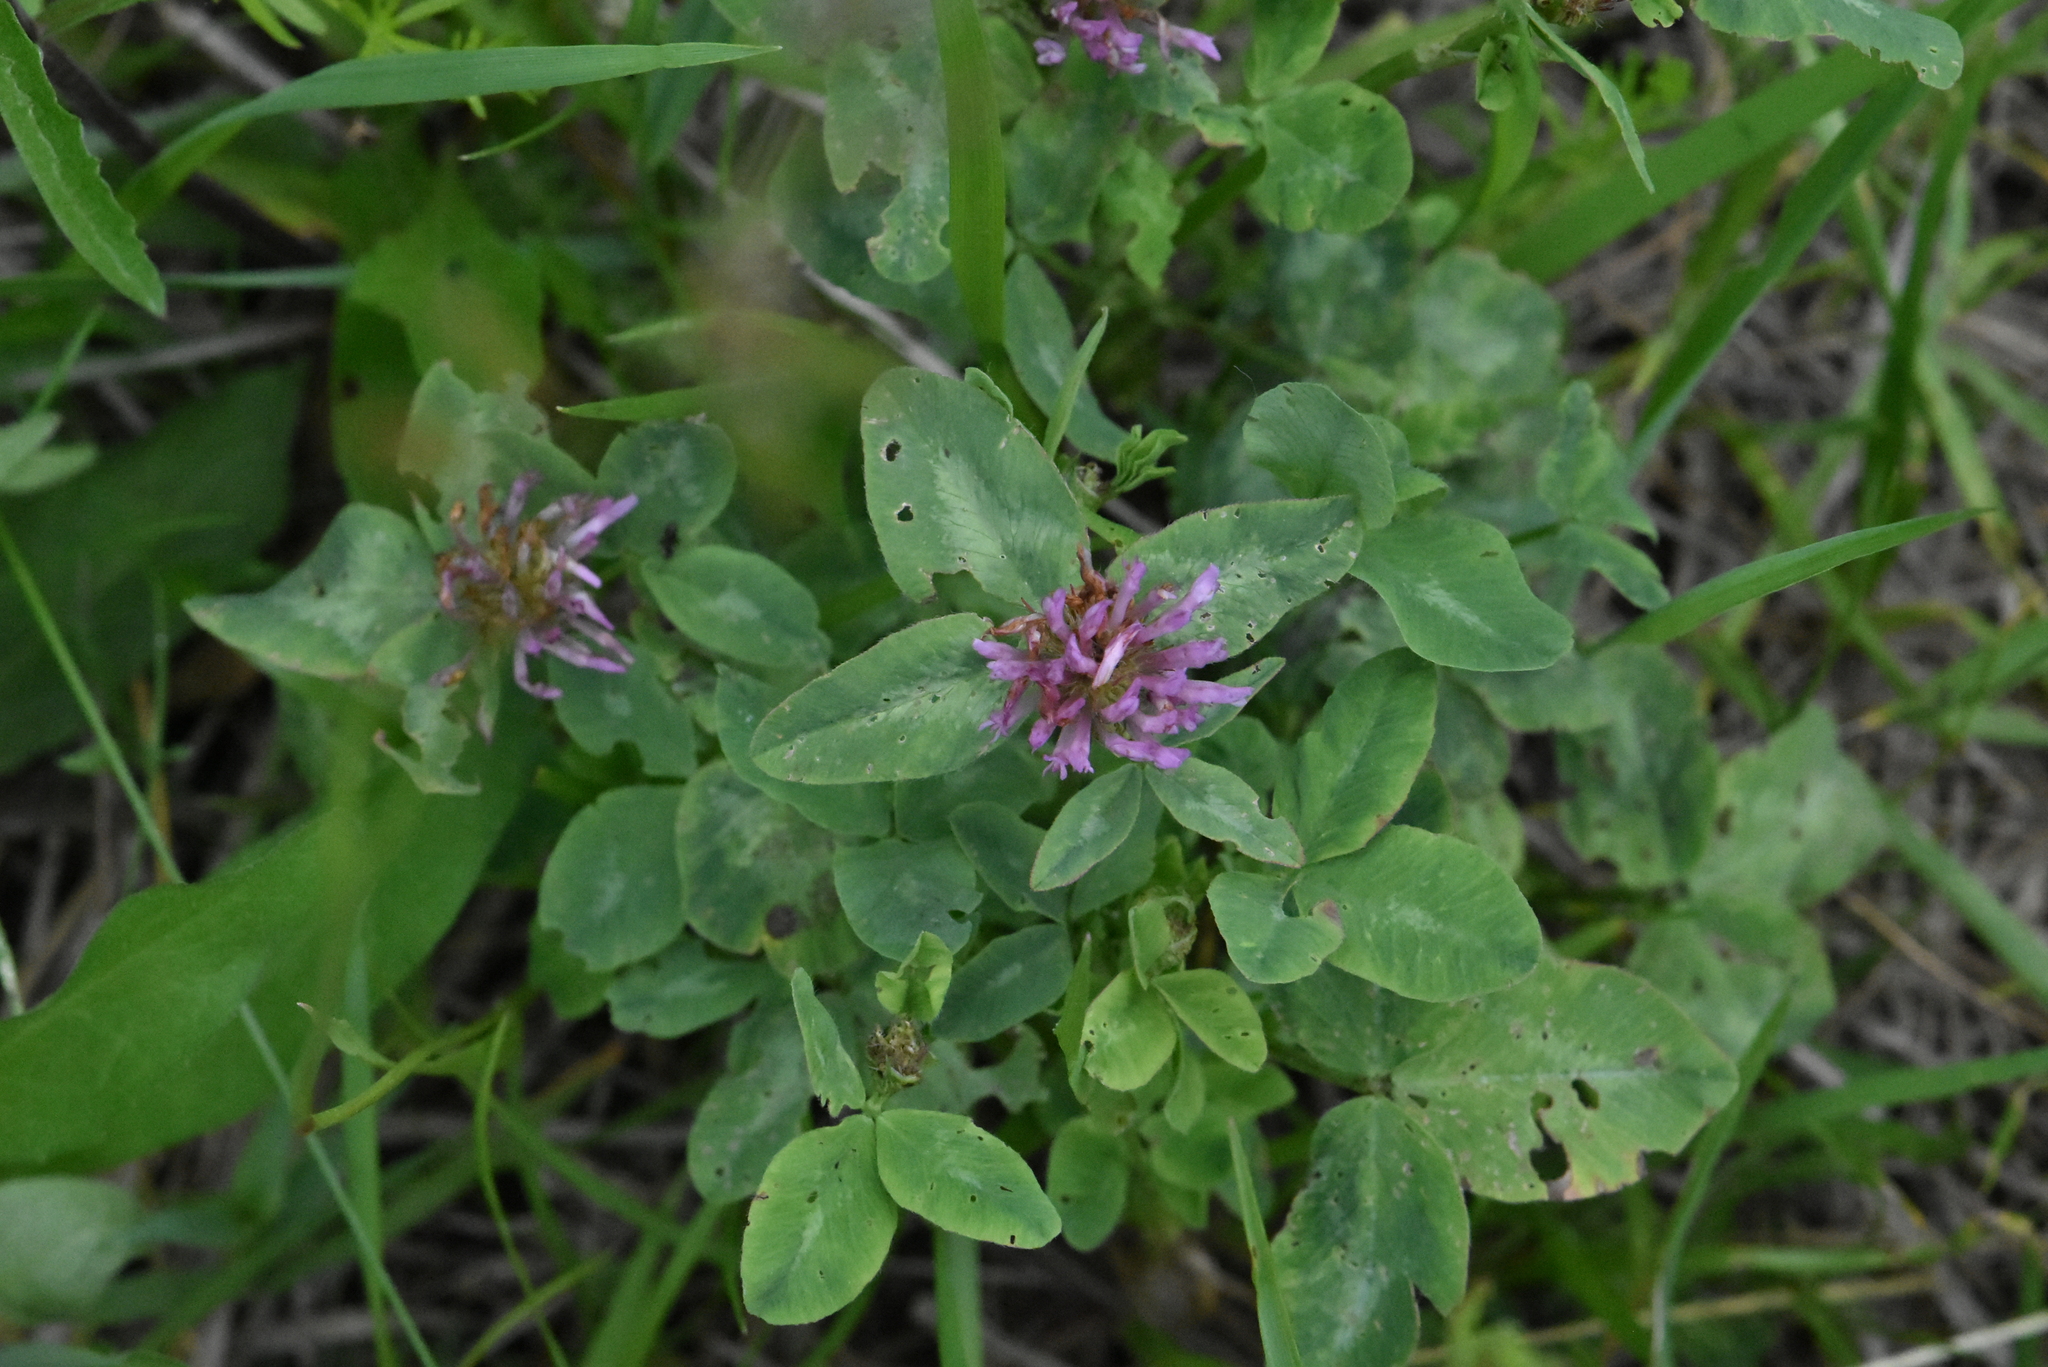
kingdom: Plantae
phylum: Tracheophyta
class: Magnoliopsida
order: Fabales
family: Fabaceae
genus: Trifolium
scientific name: Trifolium pratense
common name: Red clover
